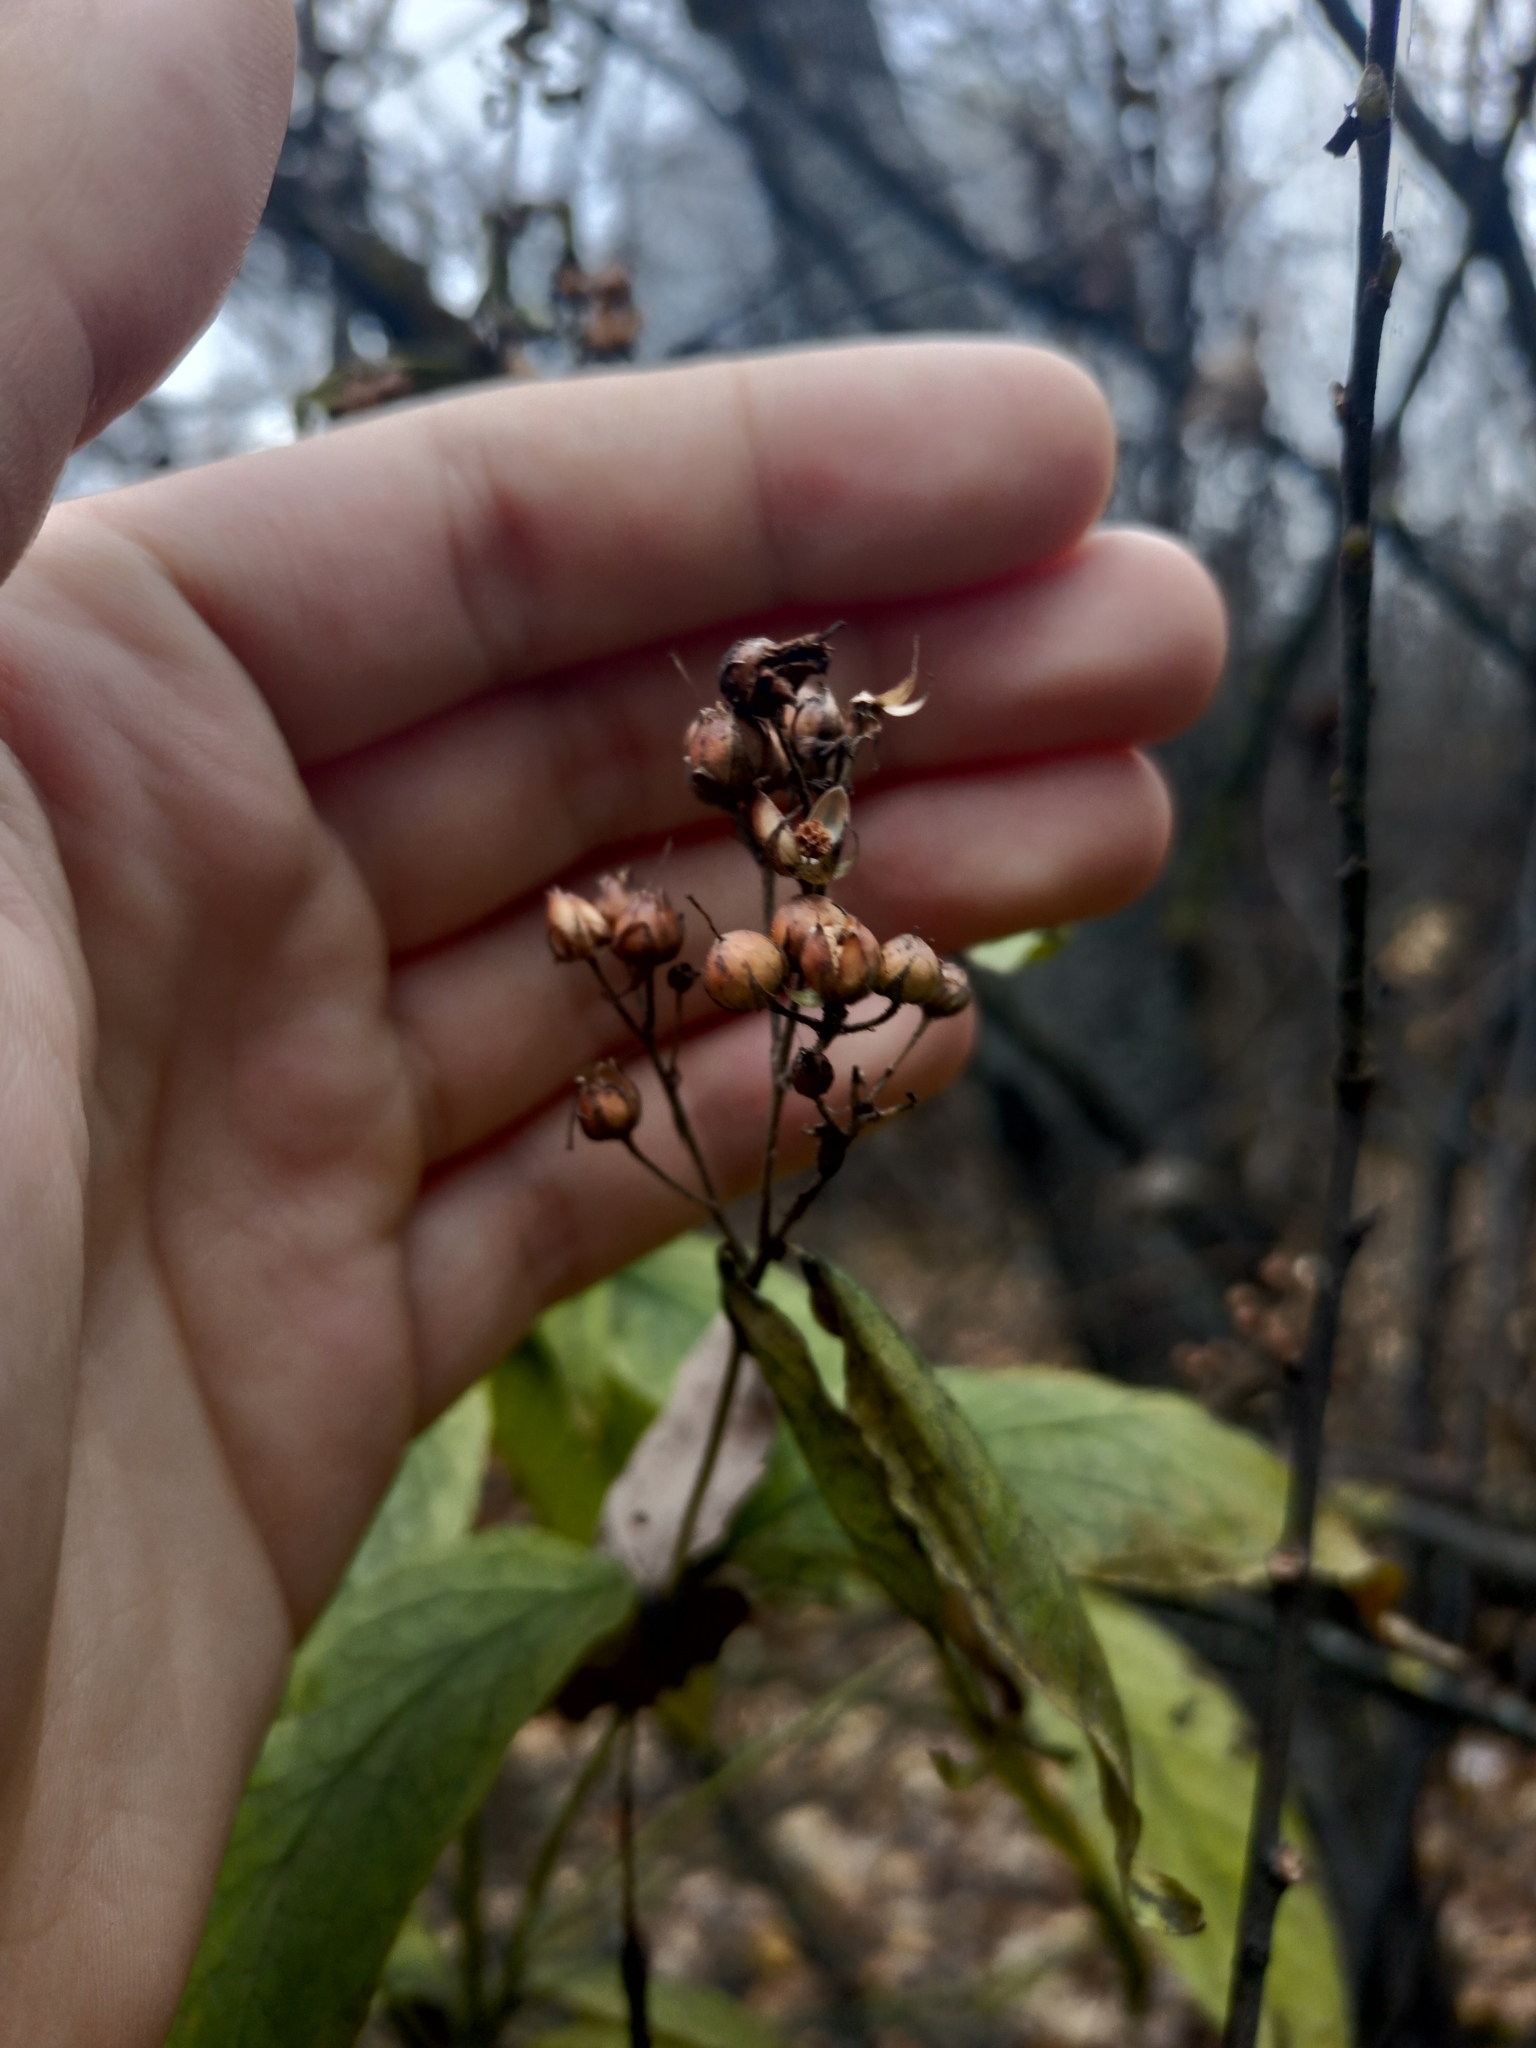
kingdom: Plantae
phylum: Tracheophyta
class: Magnoliopsida
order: Ericales
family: Primulaceae
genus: Lysimachia
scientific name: Lysimachia vulgaris
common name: Yellow loosestrife
